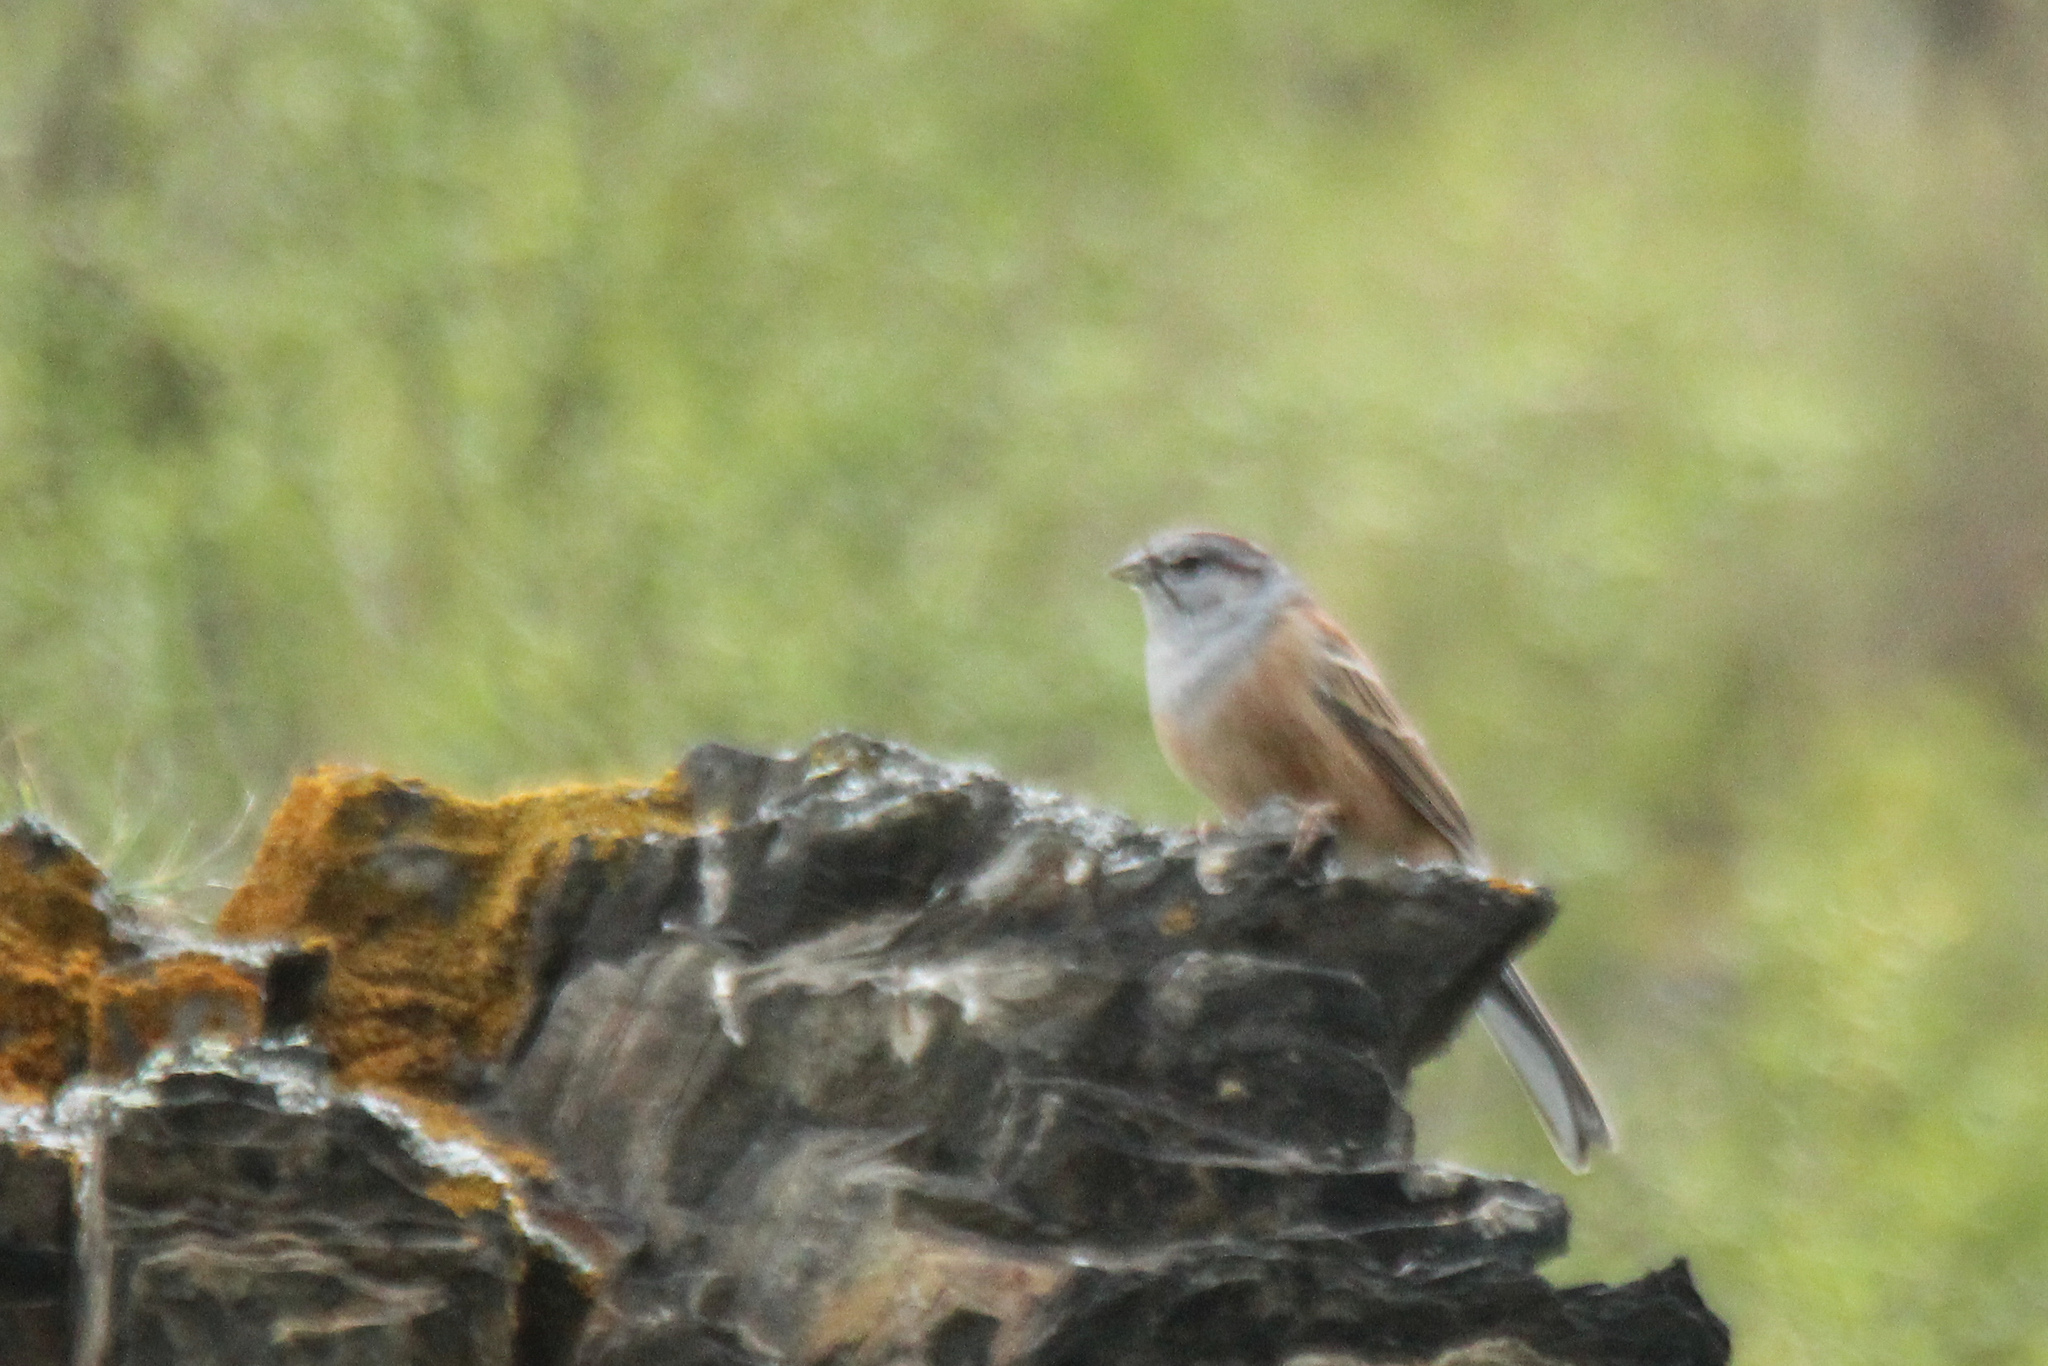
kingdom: Animalia
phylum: Chordata
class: Aves
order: Passeriformes
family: Emberizidae
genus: Emberiza
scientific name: Emberiza godlewskii
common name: Godlewski's bunting
